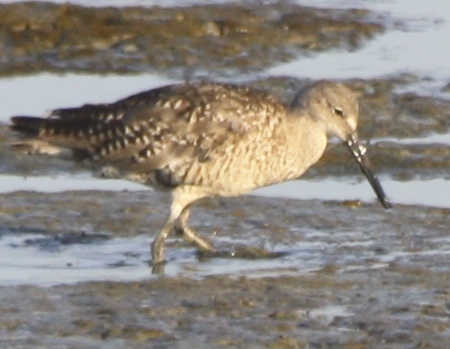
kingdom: Animalia
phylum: Chordata
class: Aves
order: Charadriiformes
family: Scolopacidae
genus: Tringa
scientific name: Tringa semipalmata
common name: Willet
